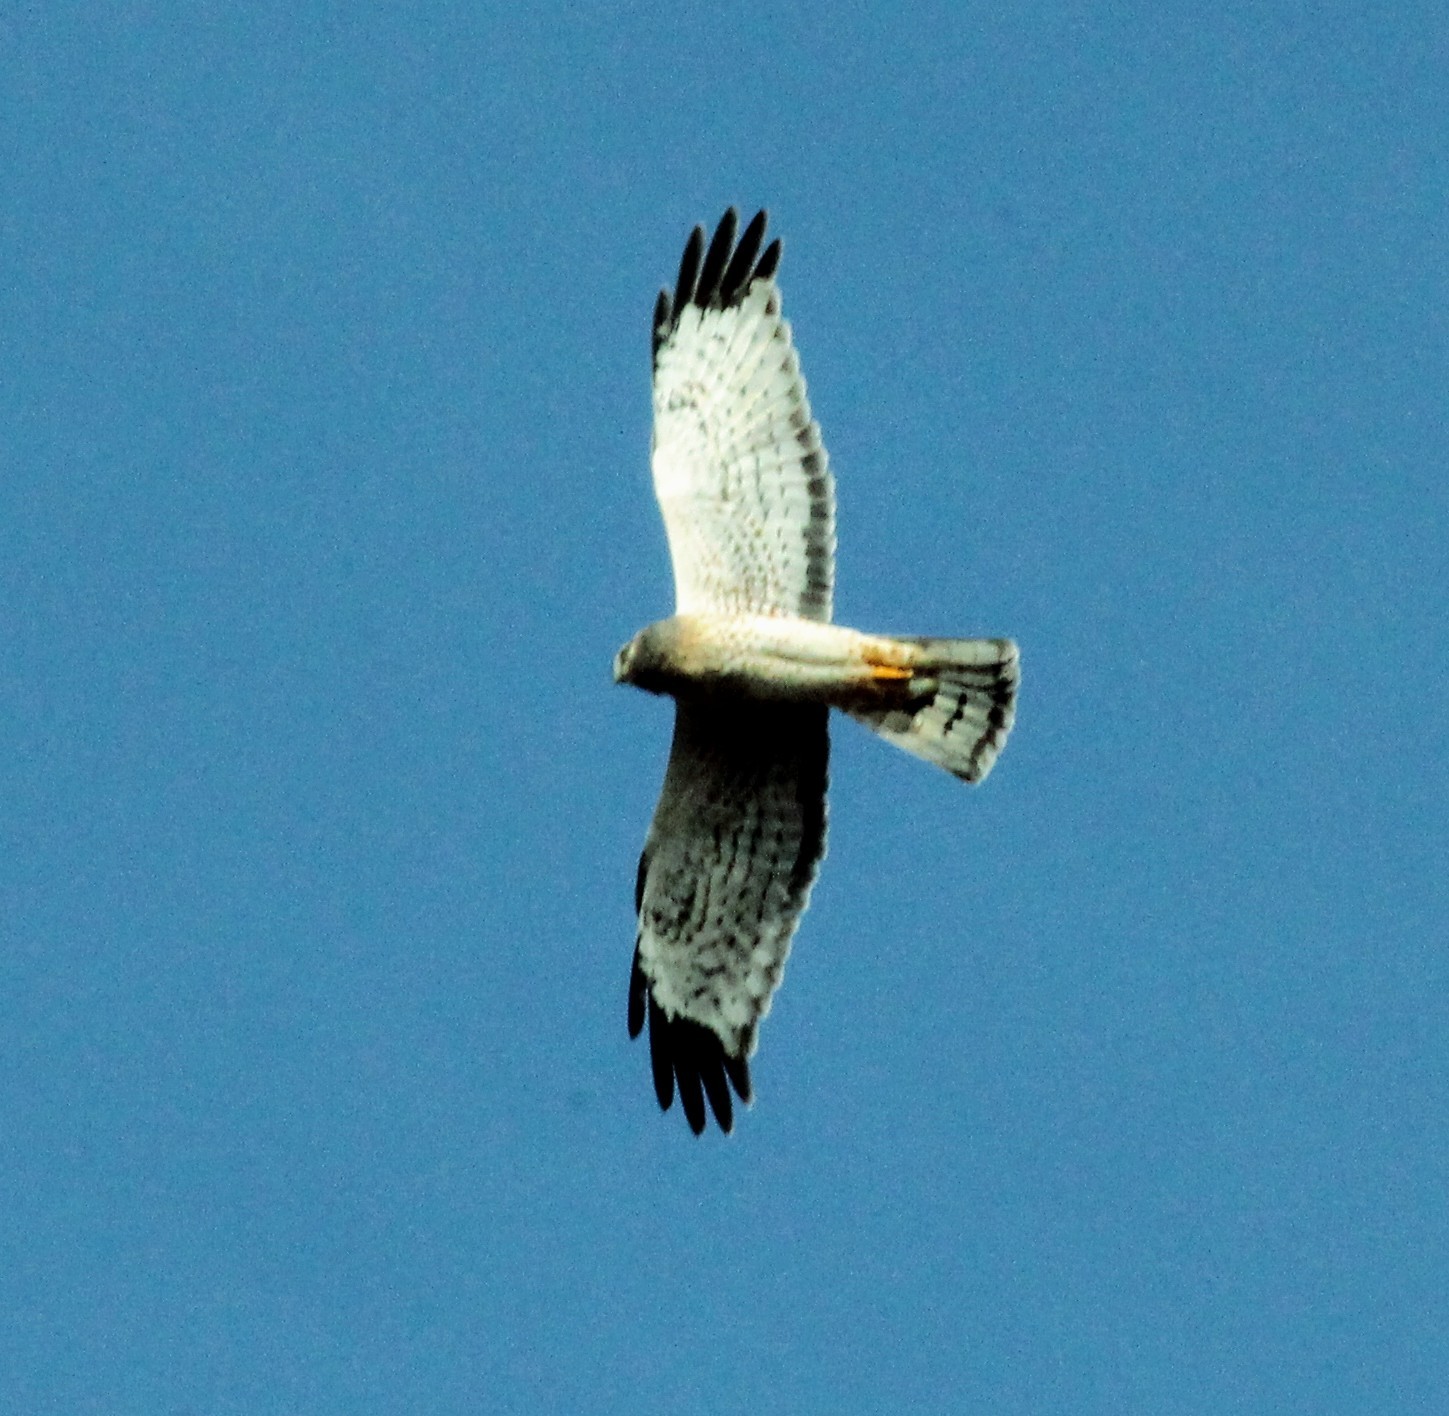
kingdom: Animalia
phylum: Chordata
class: Aves
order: Accipitriformes
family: Accipitridae
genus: Circus
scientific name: Circus cyaneus
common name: Hen harrier
